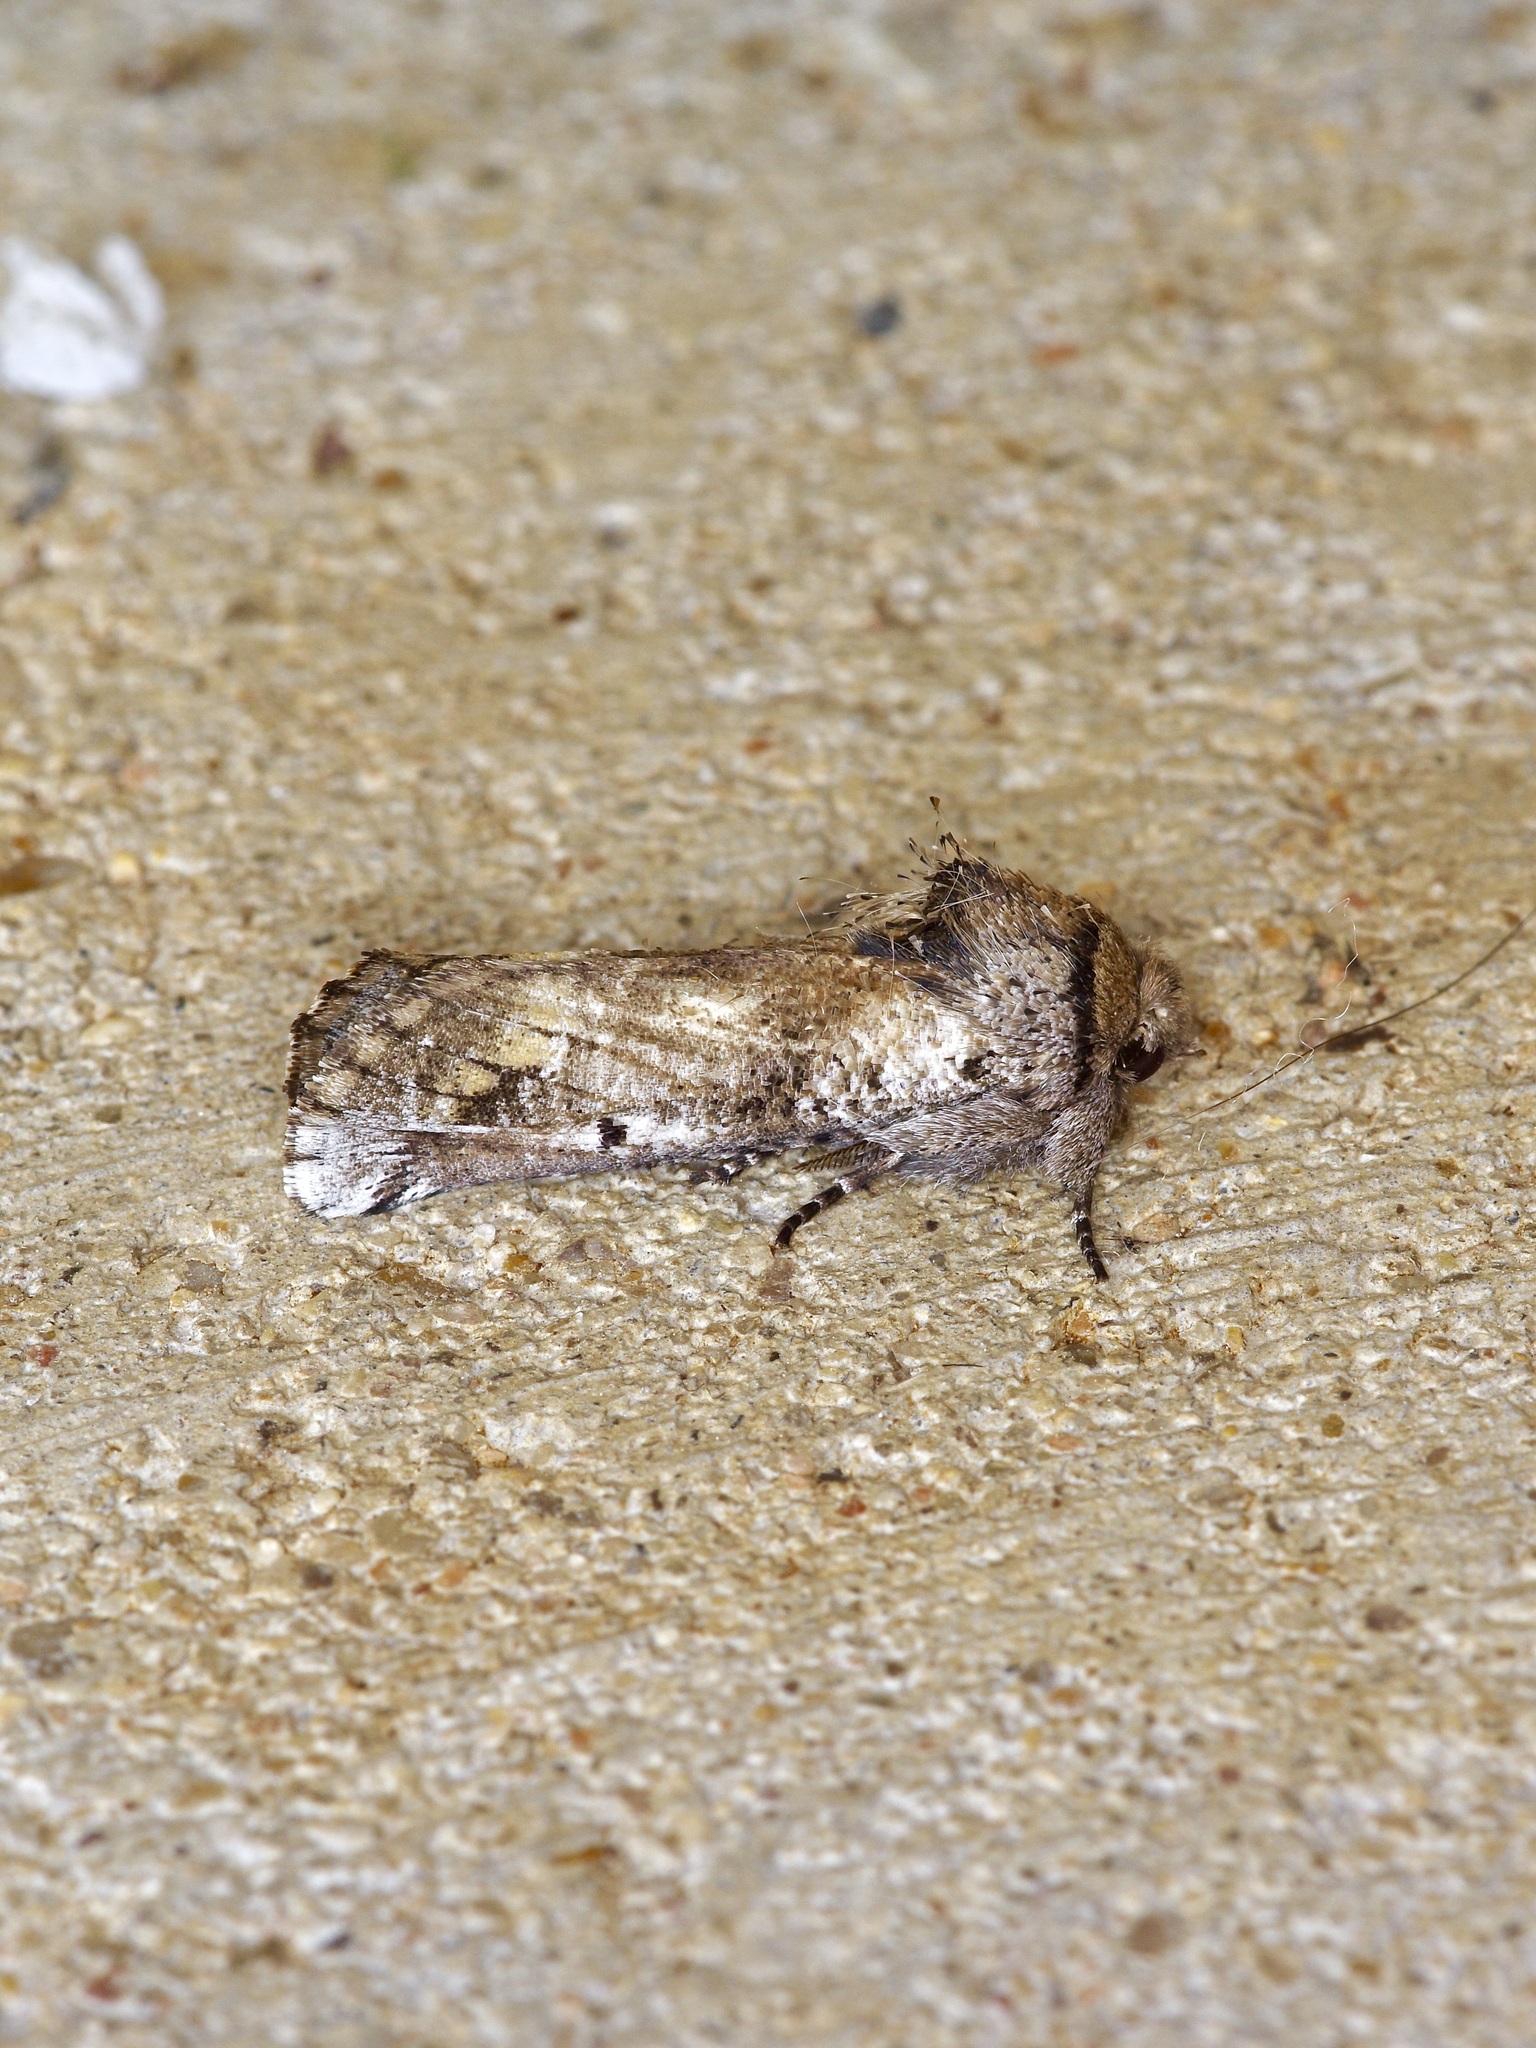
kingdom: Animalia
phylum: Arthropoda
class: Insecta
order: Lepidoptera
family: Erebidae
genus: Aon
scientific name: Aon noctuiformis
